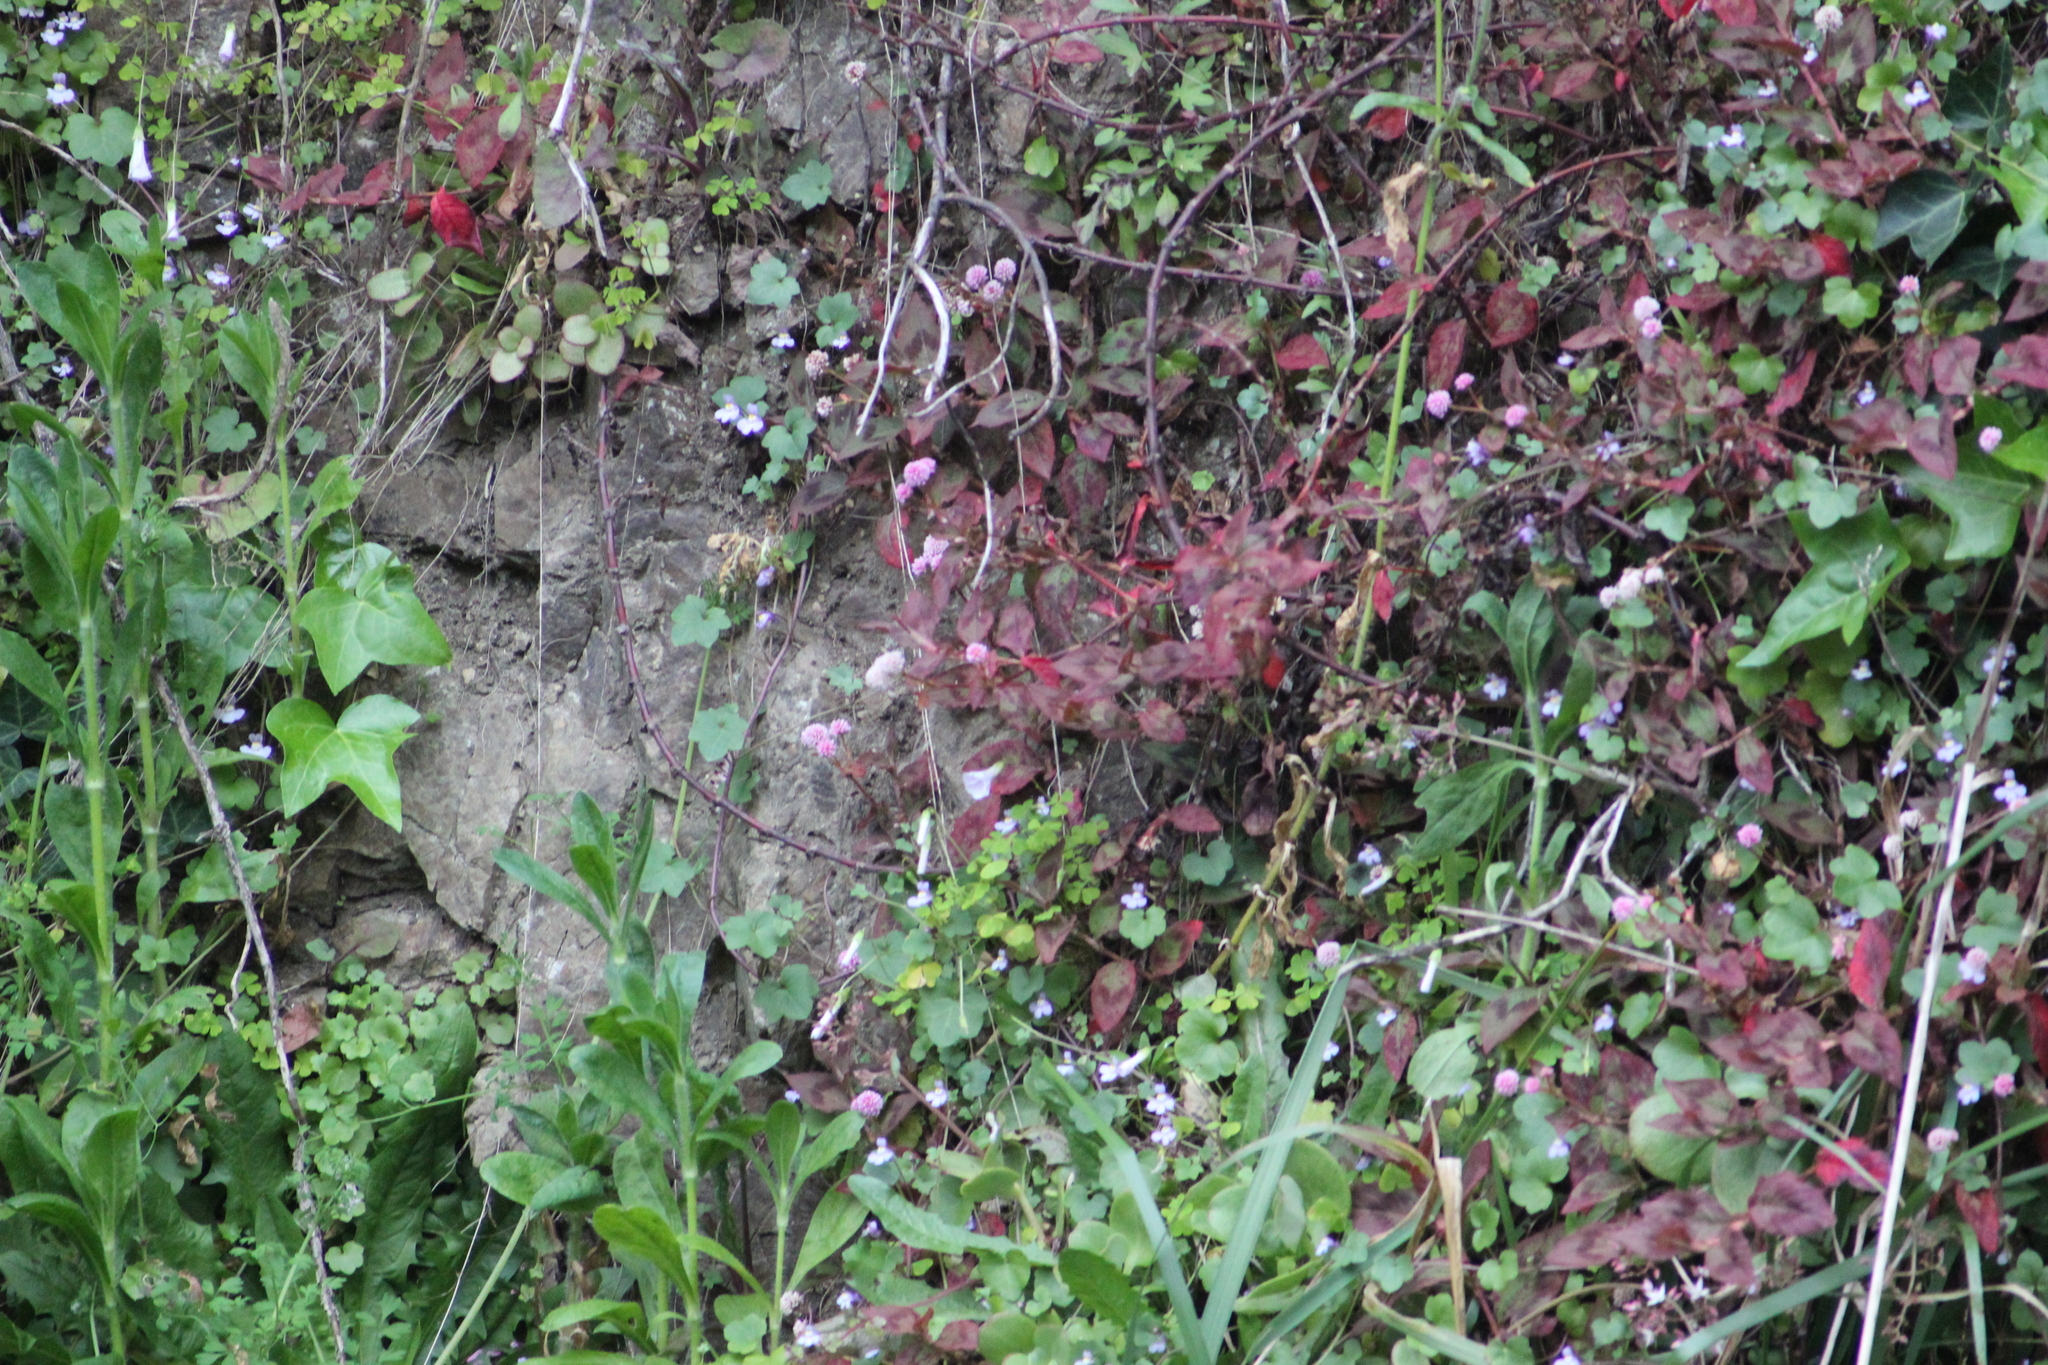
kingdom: Plantae
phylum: Tracheophyta
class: Magnoliopsida
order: Caryophyllales
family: Polygonaceae
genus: Persicaria
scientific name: Persicaria capitata
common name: Pinkhead smartweed
